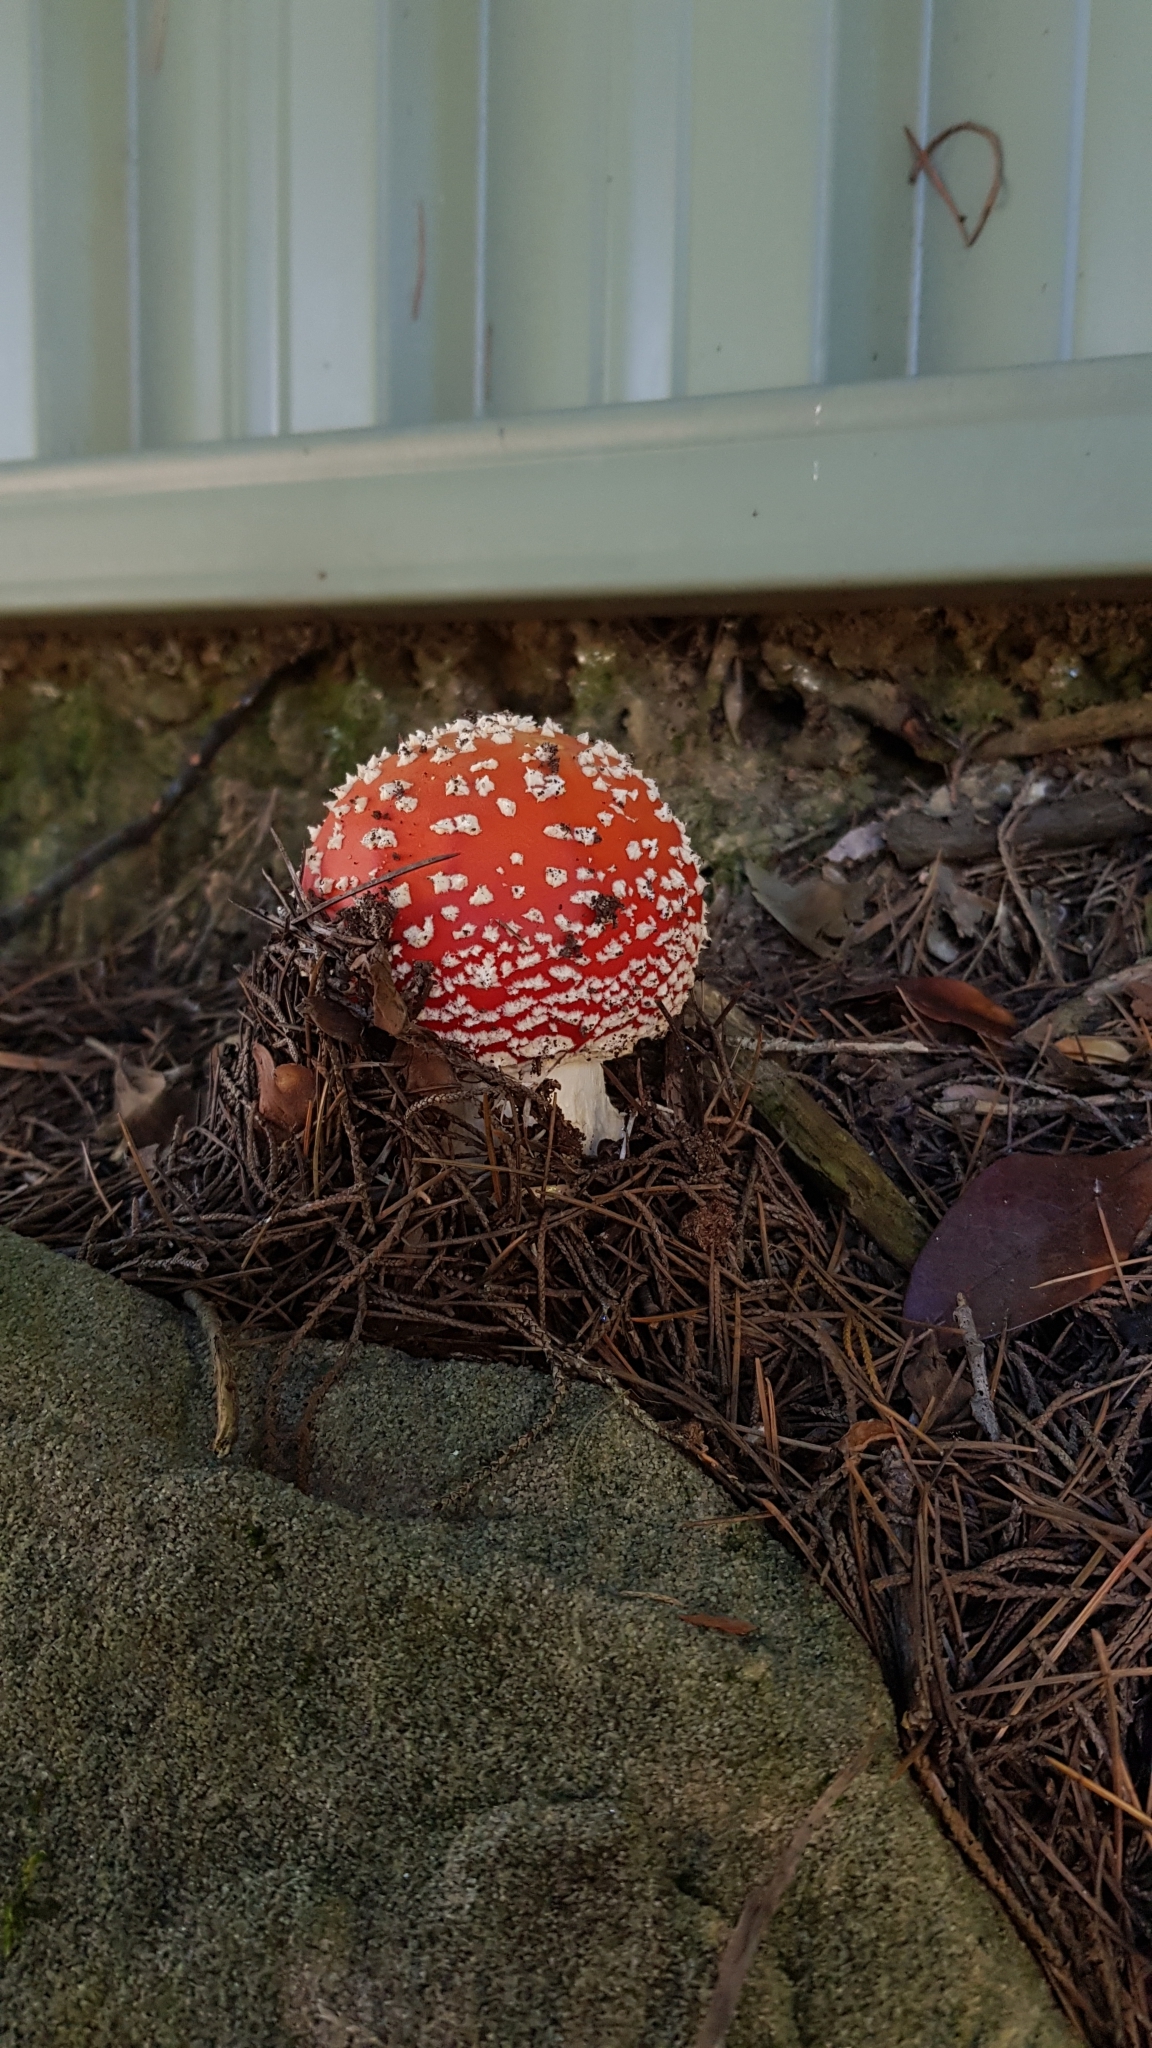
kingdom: Fungi
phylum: Basidiomycota
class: Agaricomycetes
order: Agaricales
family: Amanitaceae
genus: Amanita
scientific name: Amanita muscaria
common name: Fly agaric
